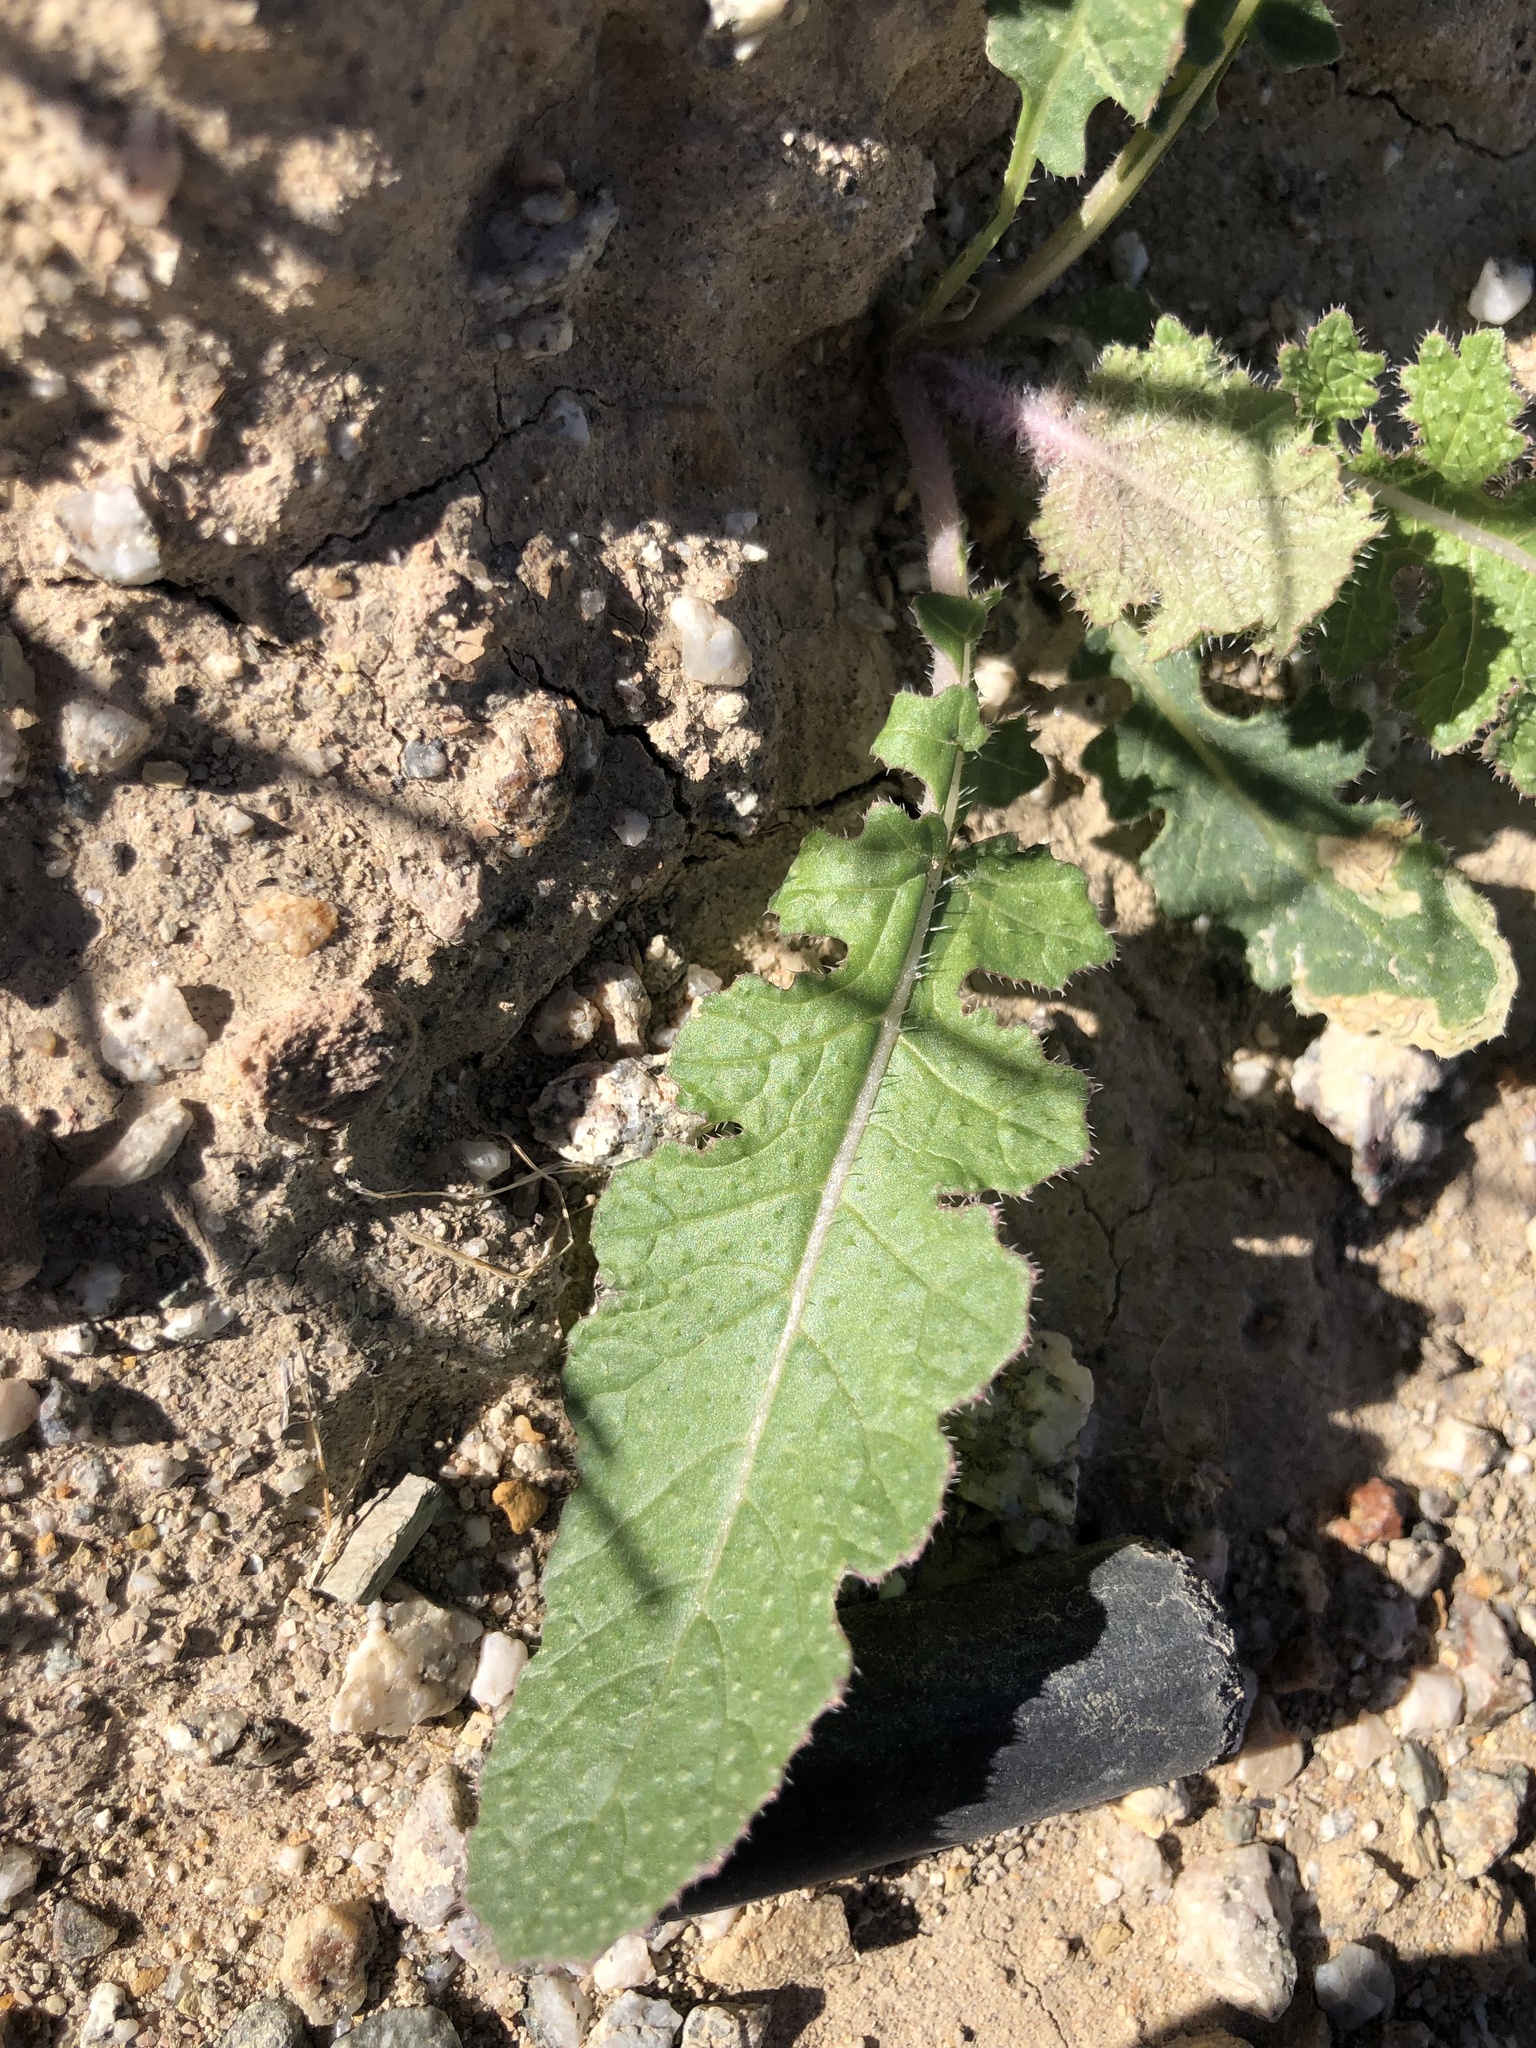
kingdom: Plantae
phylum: Tracheophyta
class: Magnoliopsida
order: Brassicales
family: Brassicaceae
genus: Brassica
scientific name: Brassica tournefortii
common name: Pale cabbage
